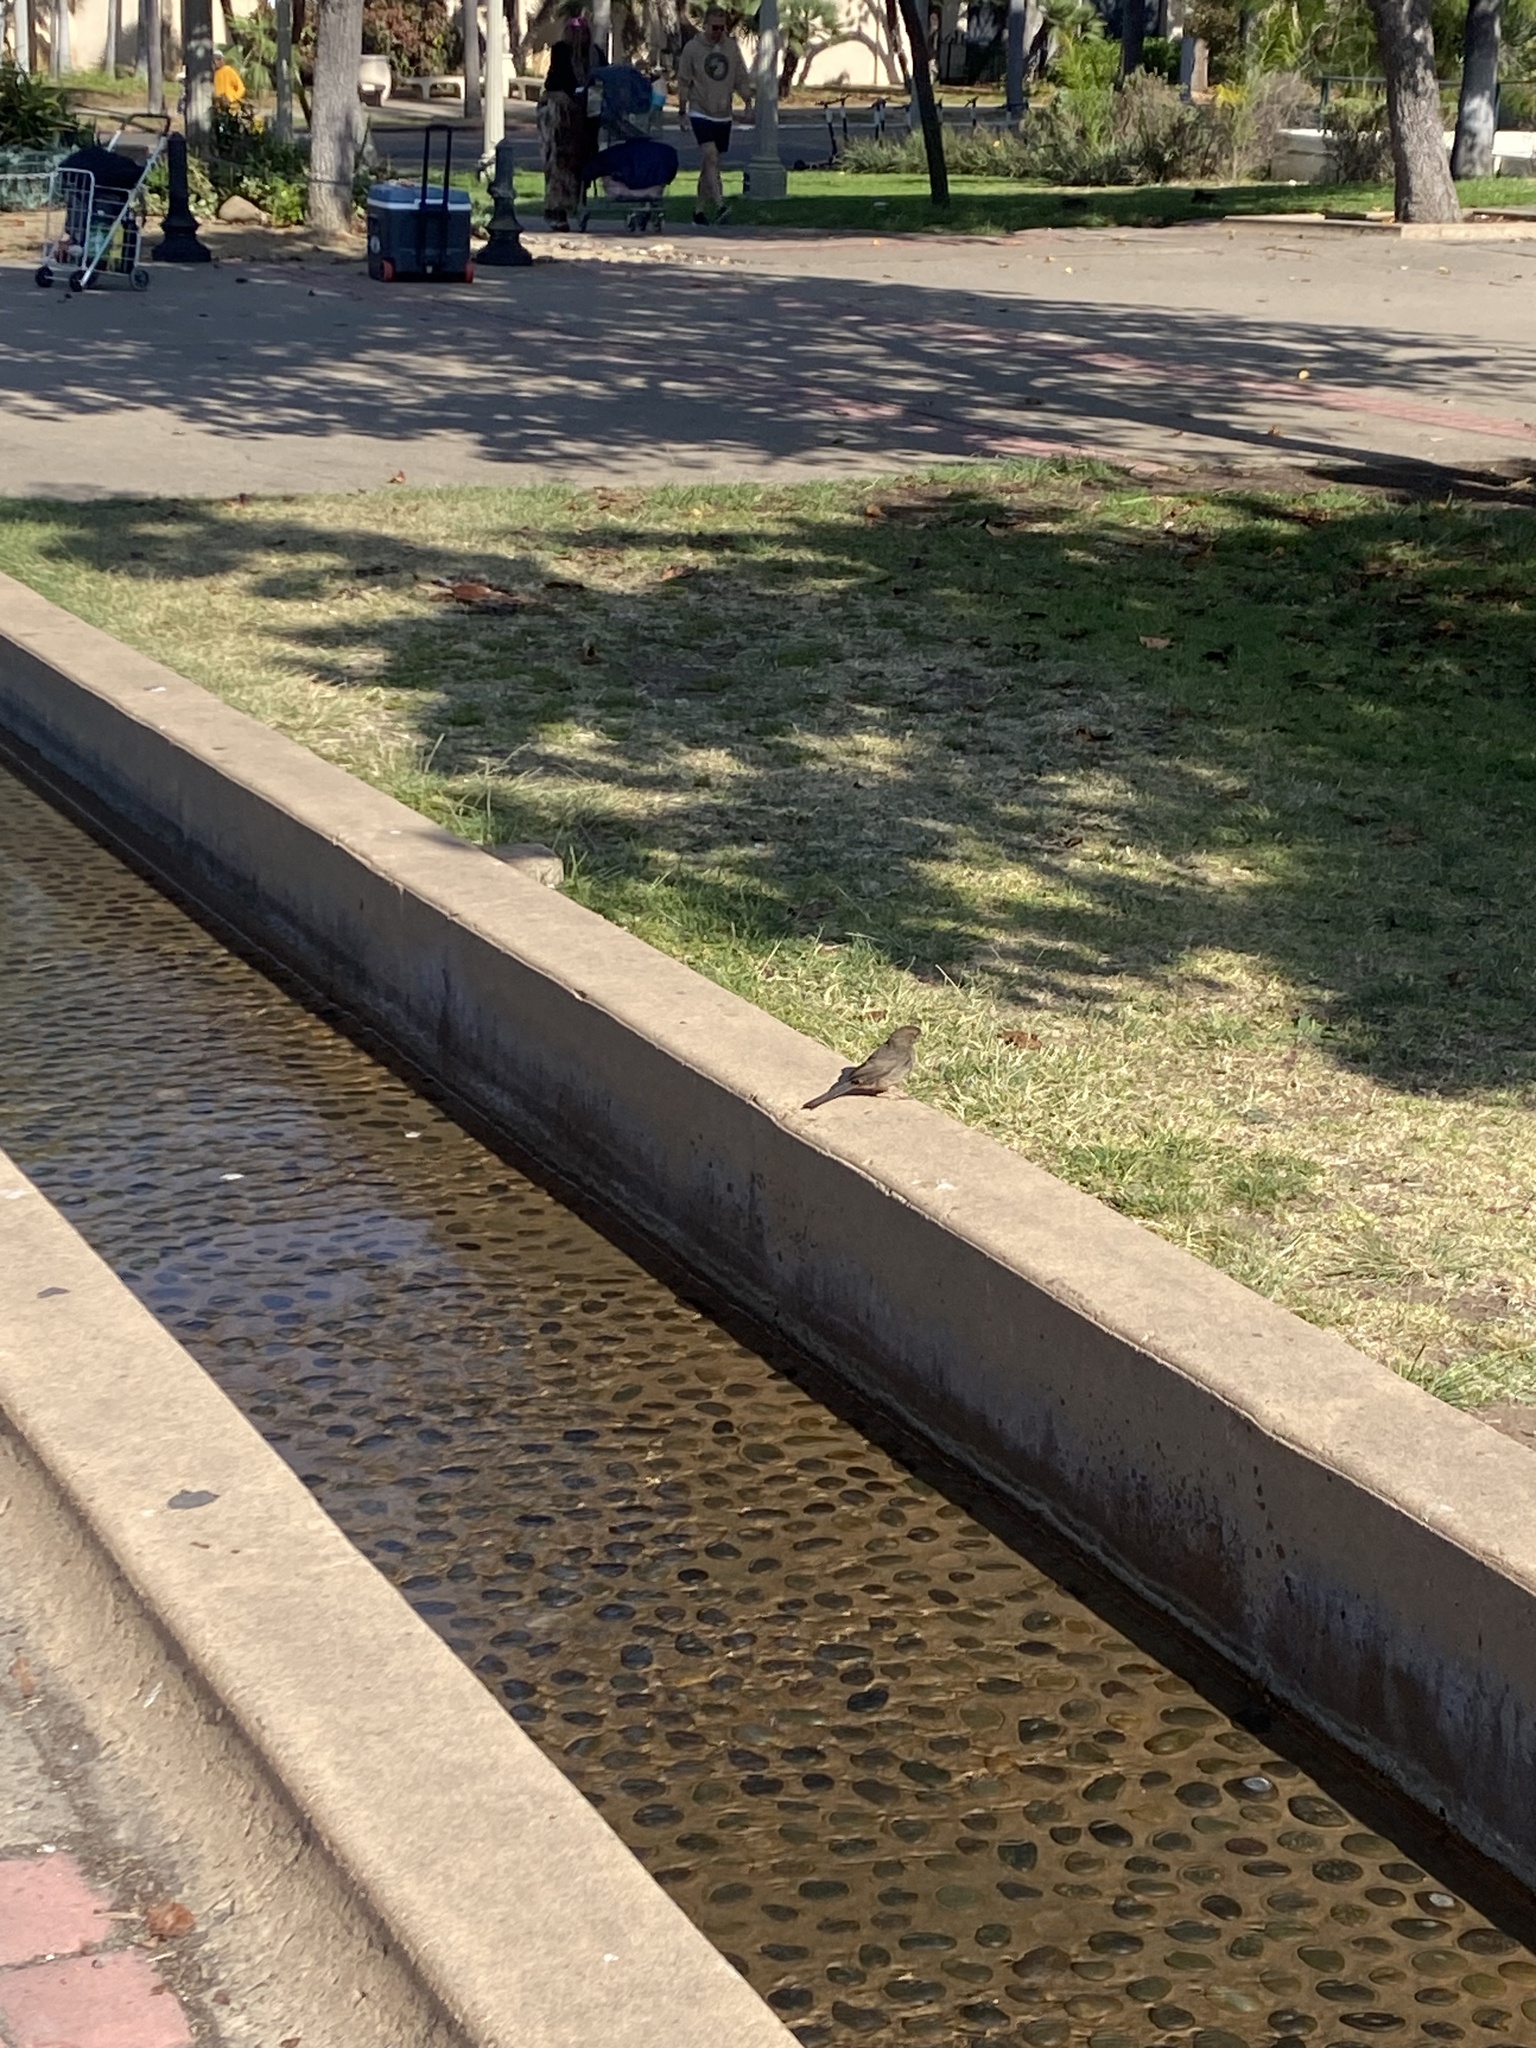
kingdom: Animalia
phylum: Chordata
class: Aves
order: Passeriformes
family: Passerellidae
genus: Melozone
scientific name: Melozone crissalis
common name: California towhee
